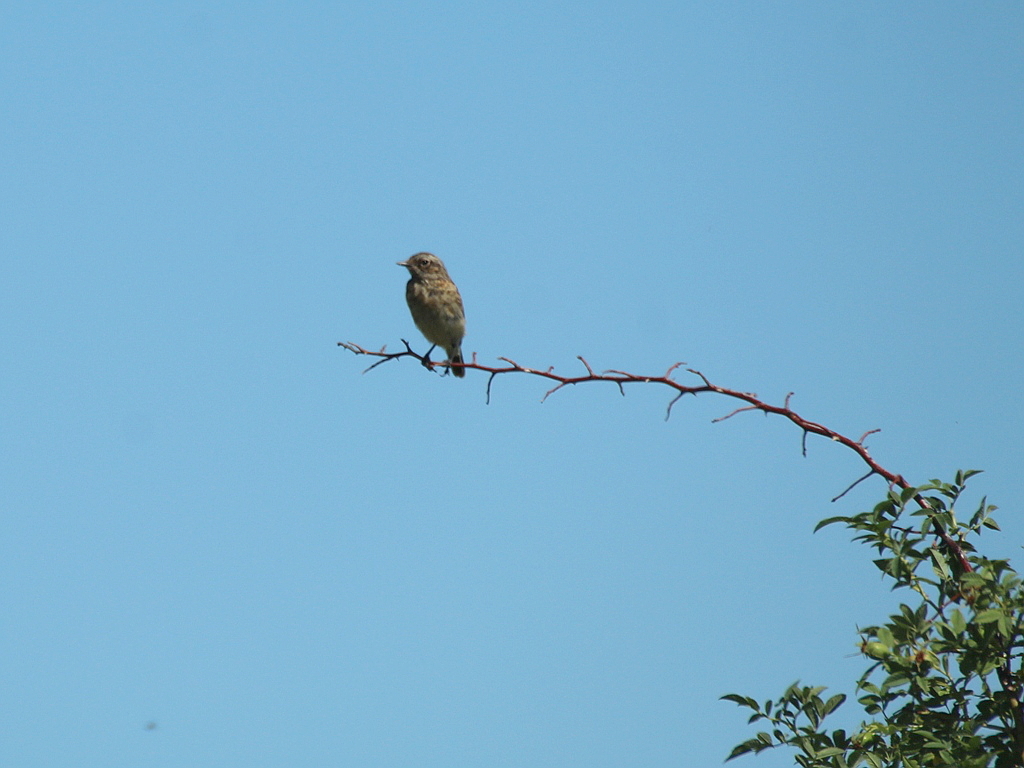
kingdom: Animalia
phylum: Chordata
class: Aves
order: Passeriformes
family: Muscicapidae
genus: Saxicola
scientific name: Saxicola rubetra
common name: Whinchat
